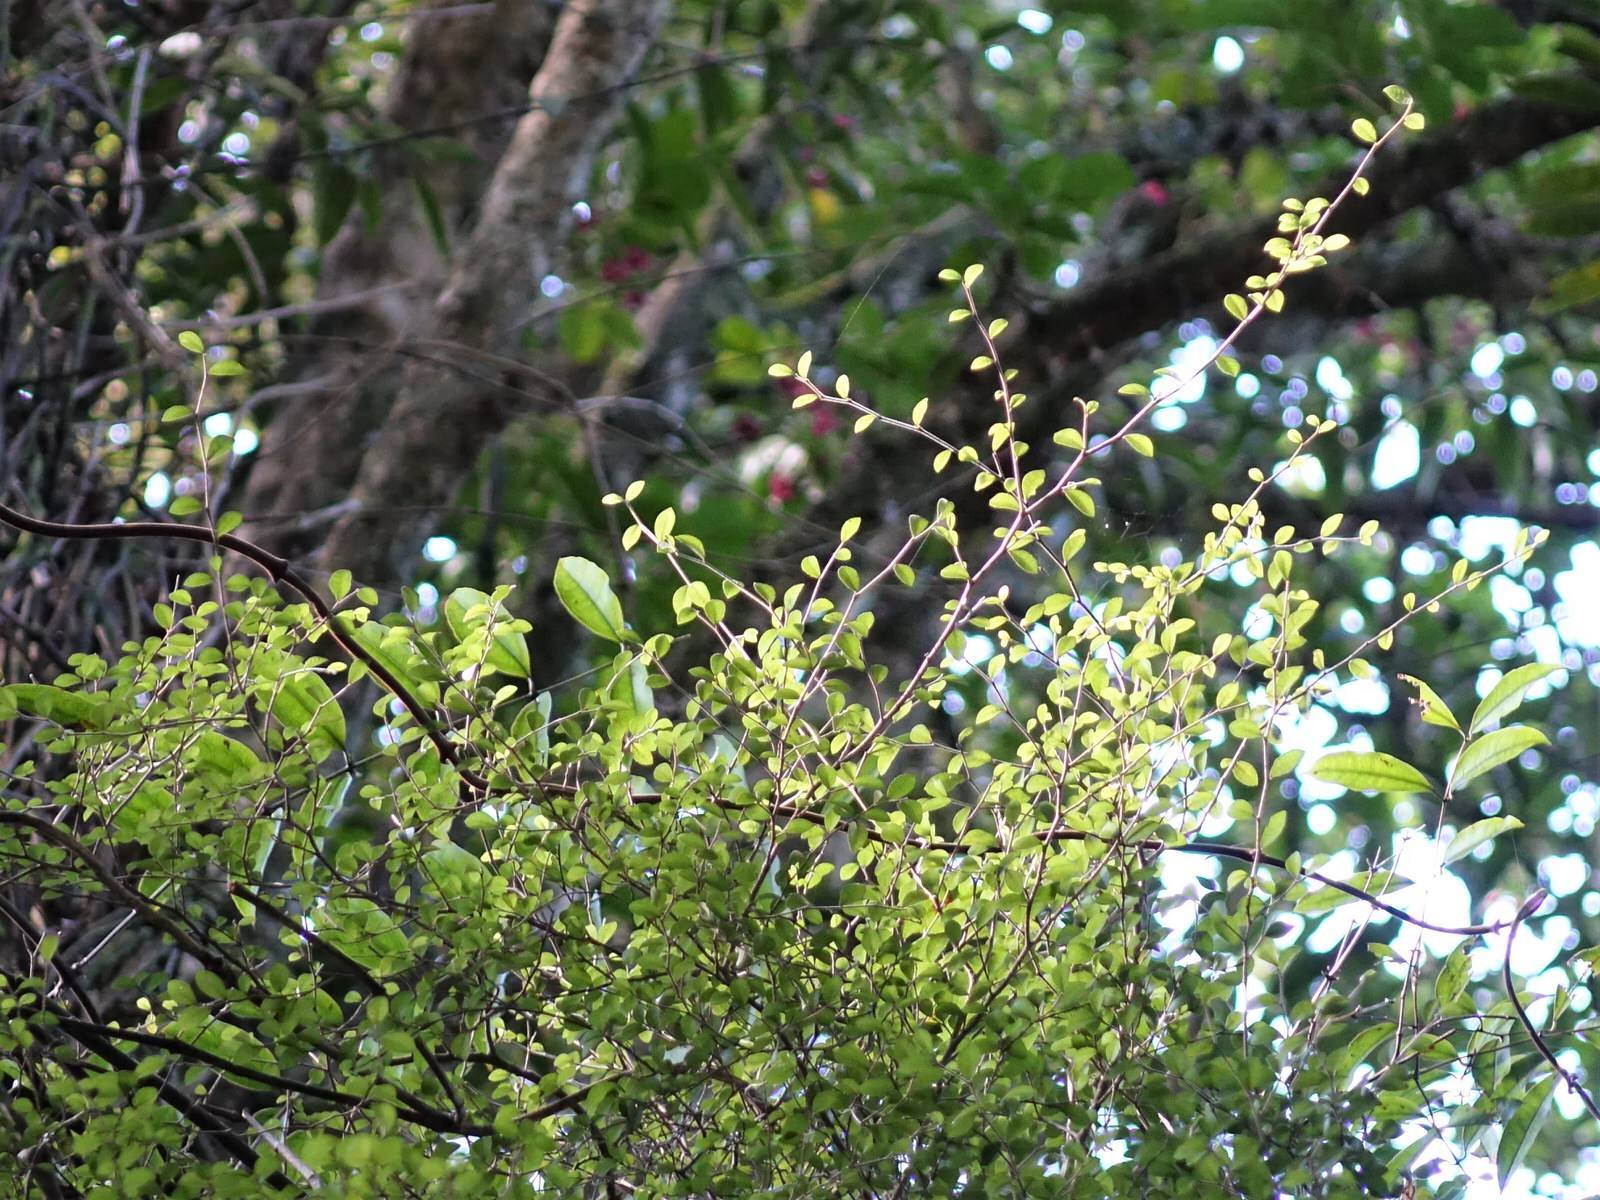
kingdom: Plantae
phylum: Tracheophyta
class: Magnoliopsida
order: Rosales
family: Moraceae
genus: Paratrophis
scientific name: Paratrophis microphylla
